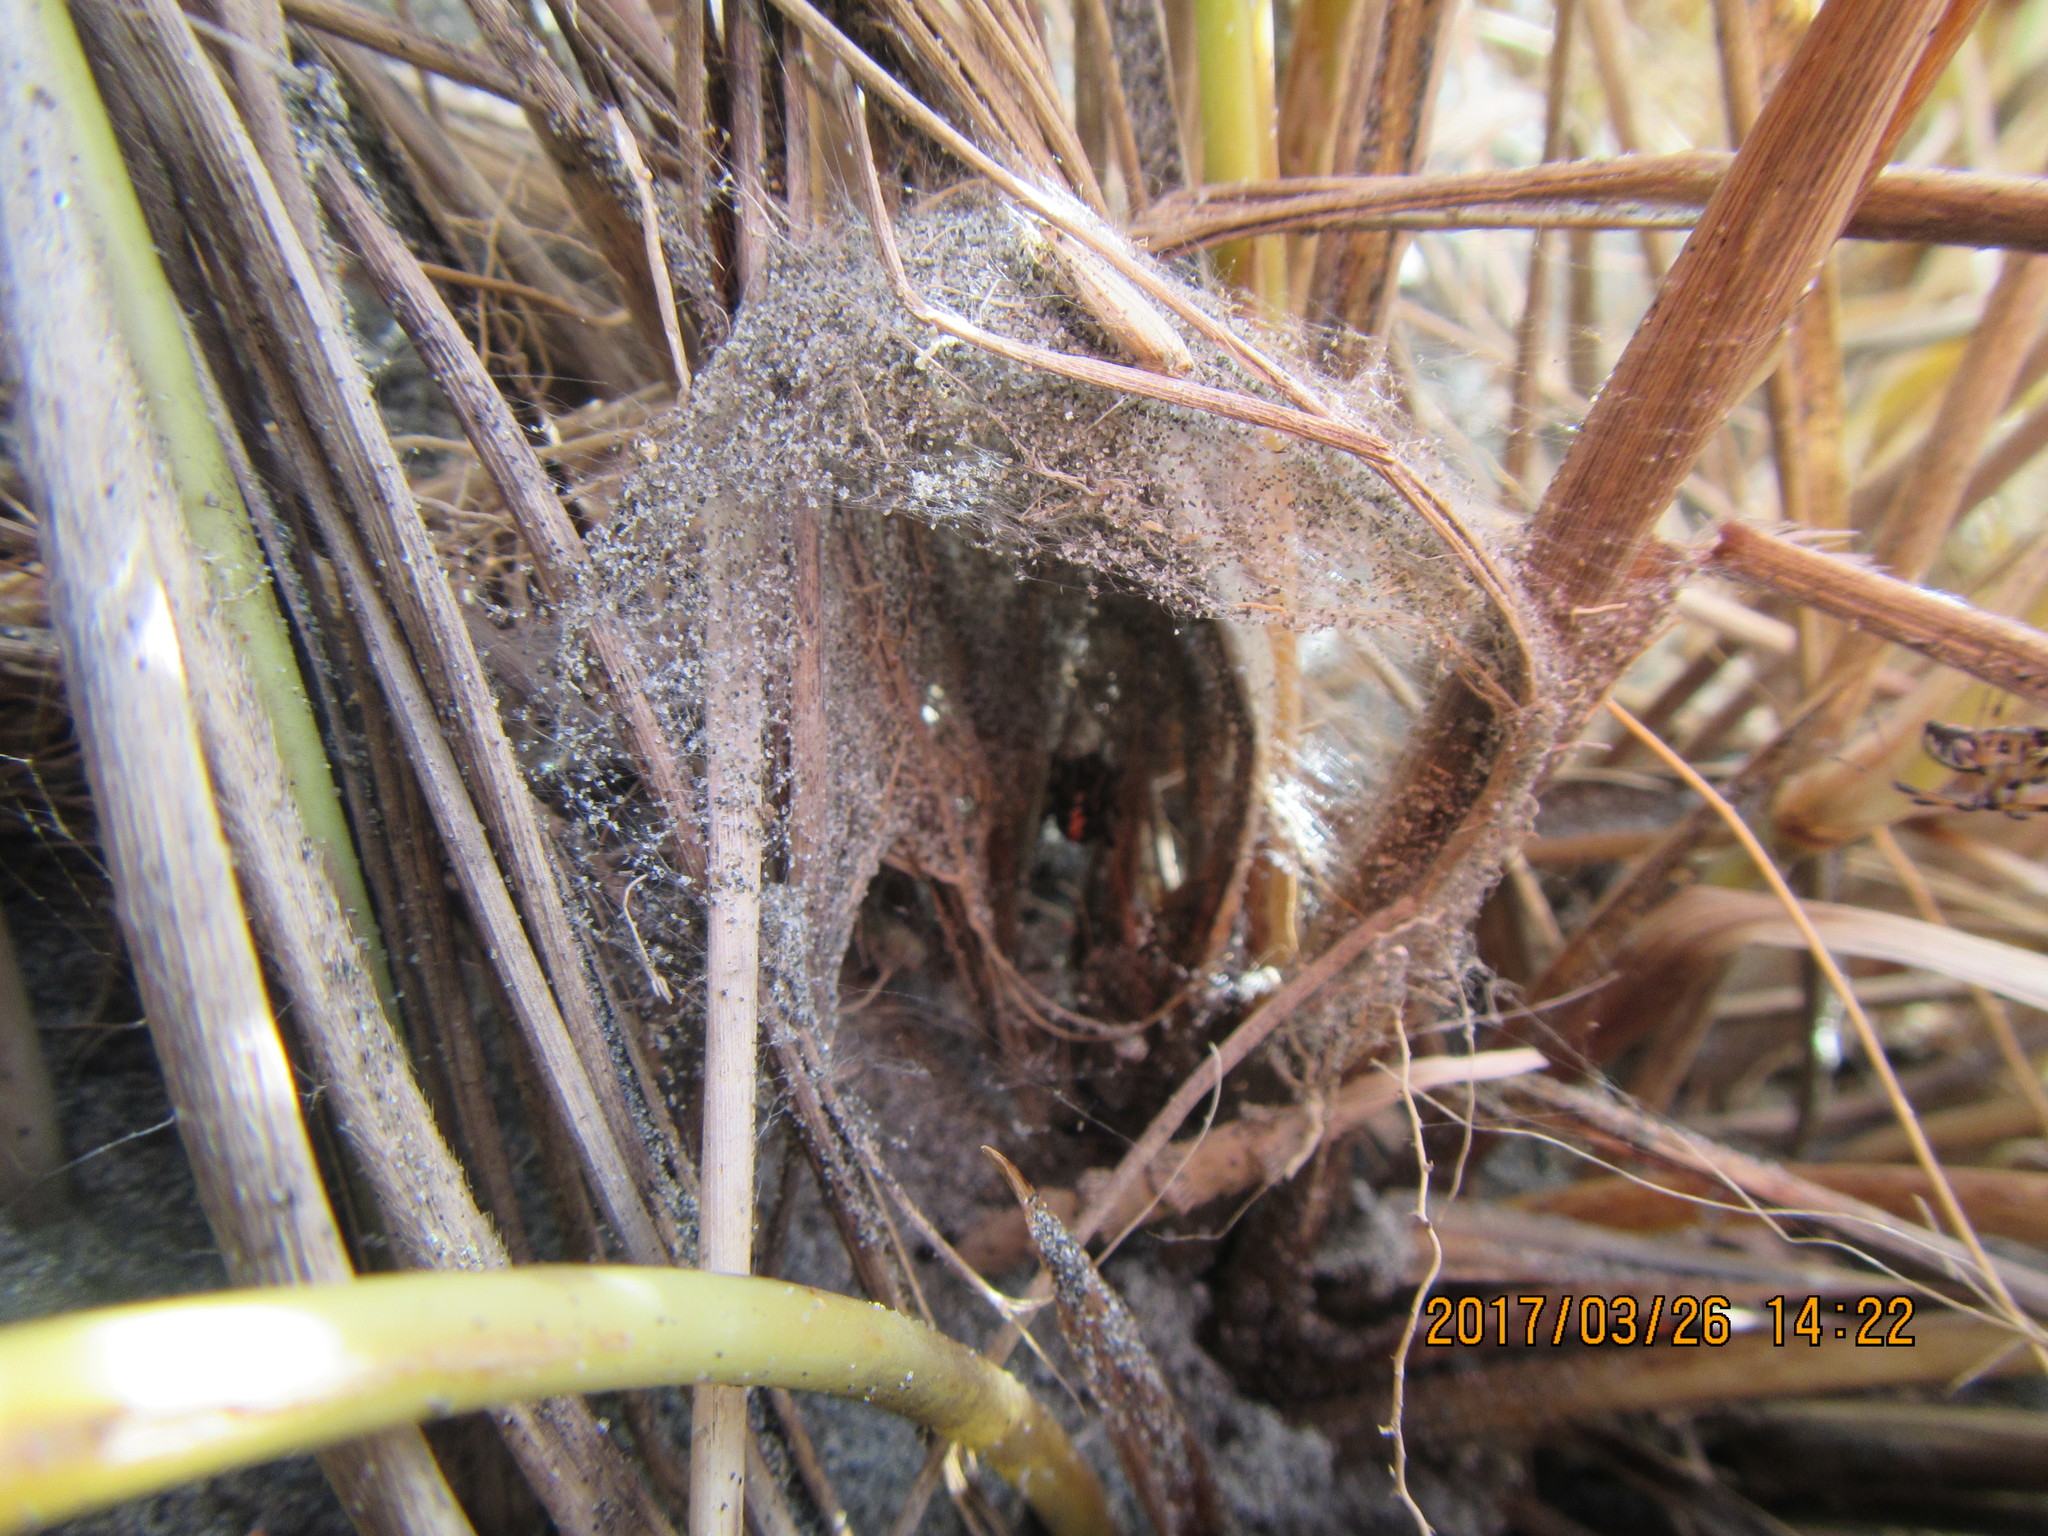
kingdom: Animalia
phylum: Arthropoda
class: Arachnida
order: Araneae
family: Theridiidae
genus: Latrodectus
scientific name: Latrodectus katipo
